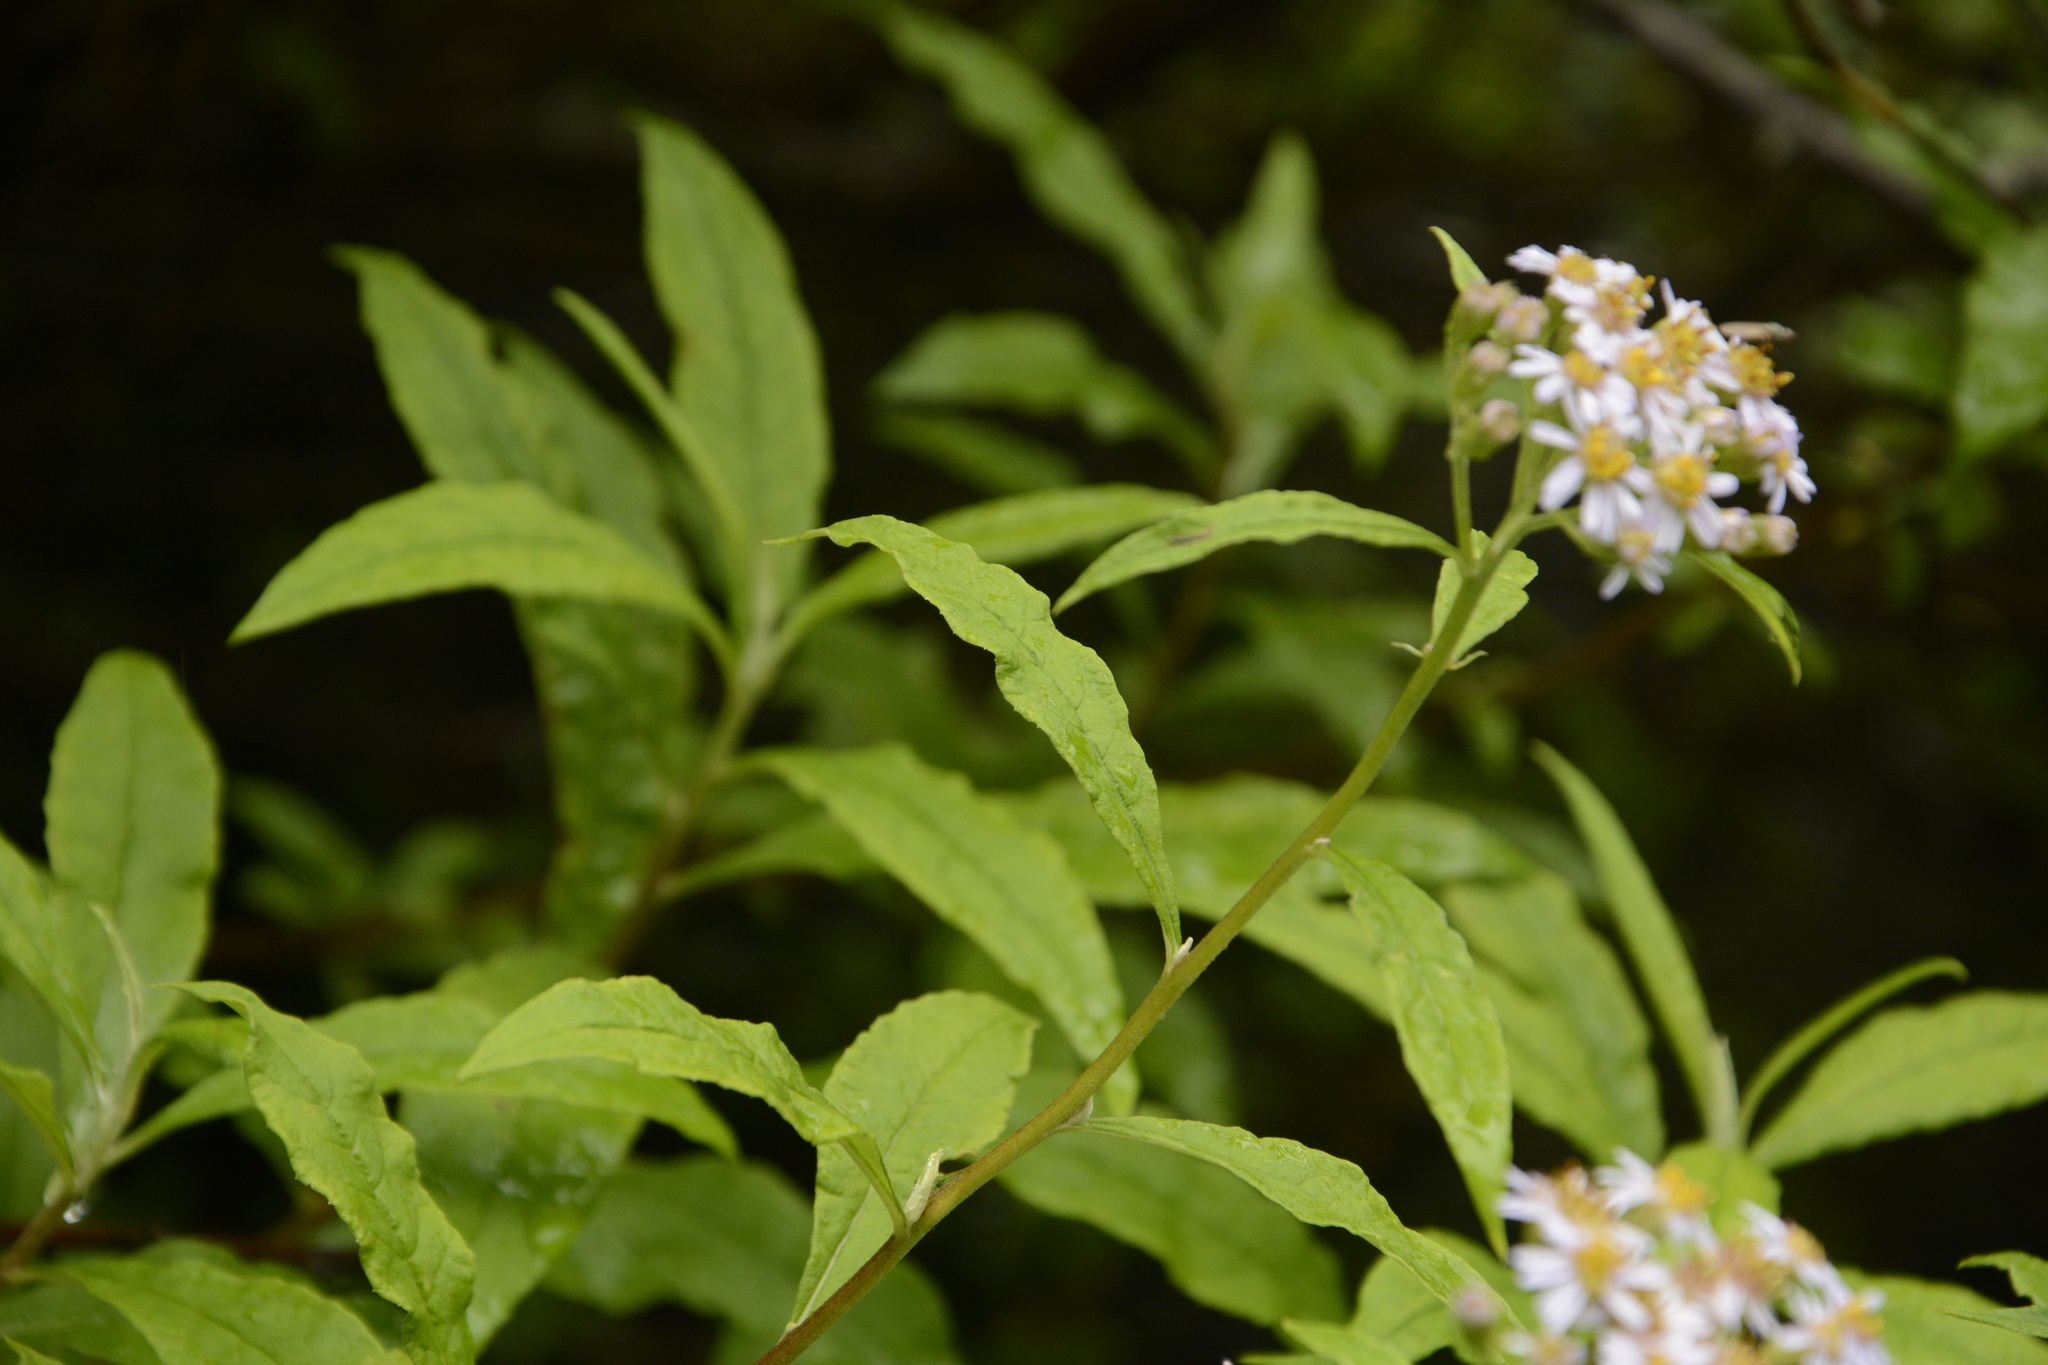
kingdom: Plantae
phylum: Tracheophyta
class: Magnoliopsida
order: Asterales
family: Asteraceae
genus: Aster
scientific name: Aster albescens
